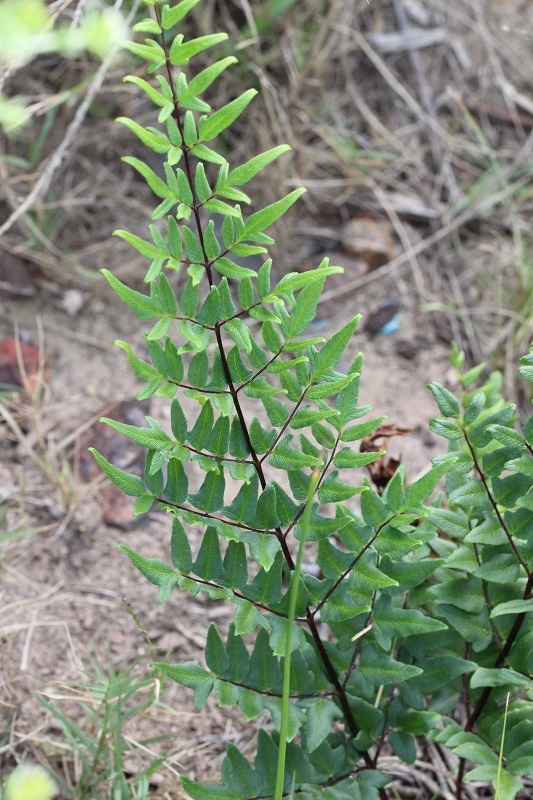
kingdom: Plantae
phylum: Tracheophyta
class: Polypodiopsida
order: Polypodiales
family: Pteridaceae
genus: Cheilanthes
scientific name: Cheilanthes viridis
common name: Green cliffbrake
